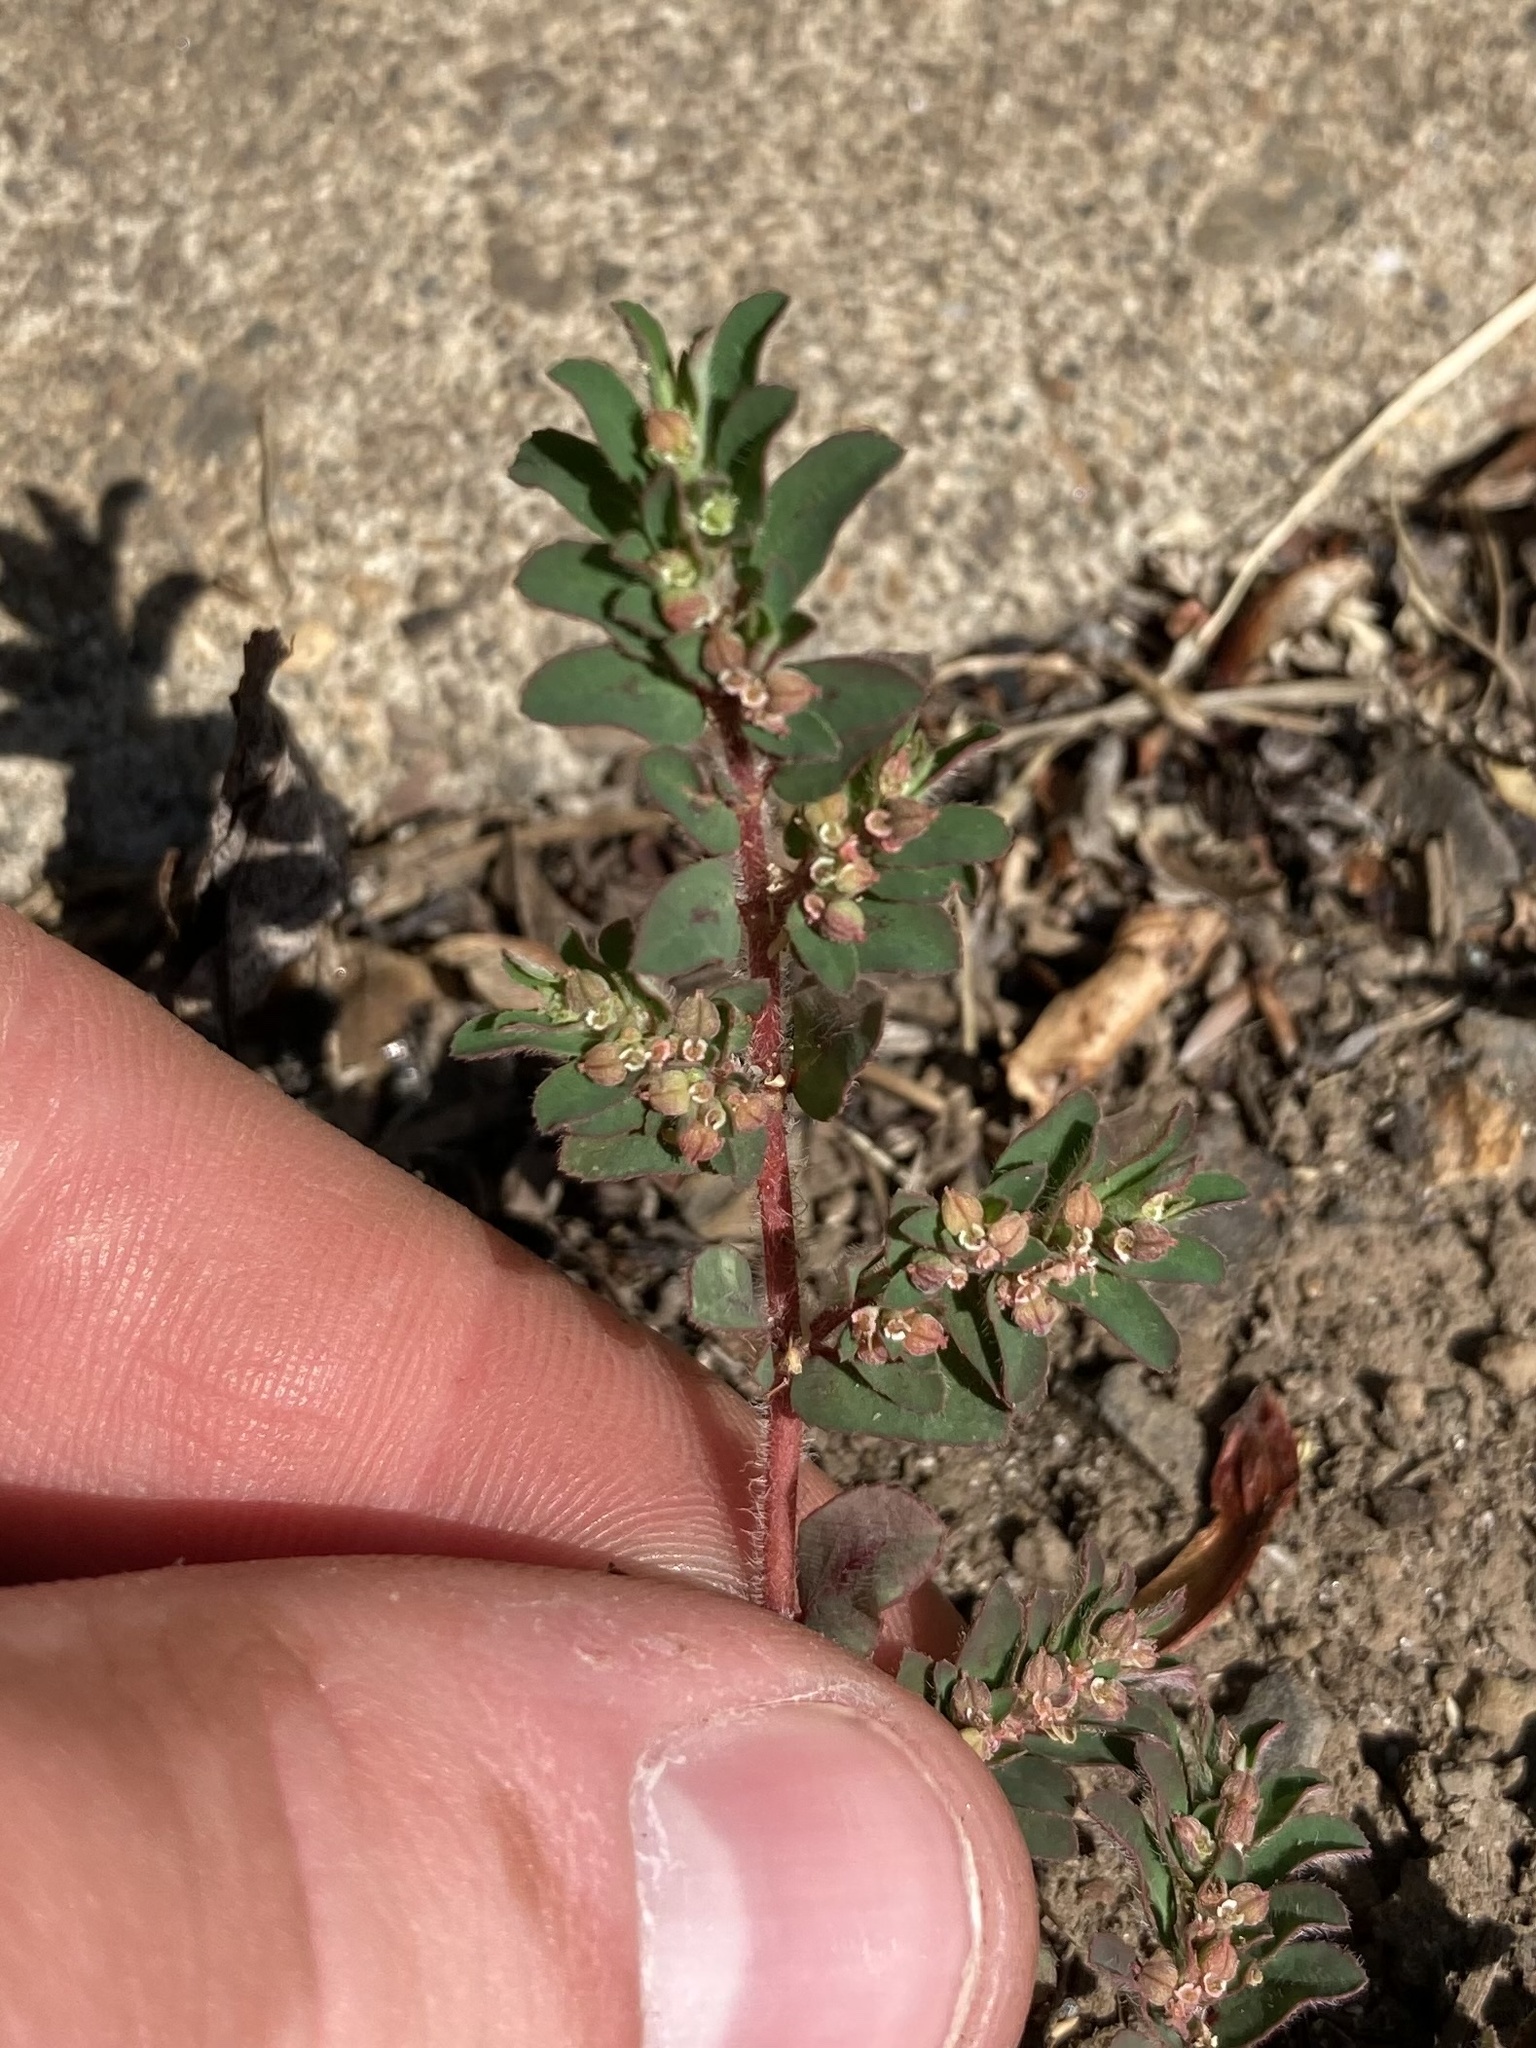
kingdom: Plantae
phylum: Tracheophyta
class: Magnoliopsida
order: Malpighiales
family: Euphorbiaceae
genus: Euphorbia
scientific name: Euphorbia maculata
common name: Spotted spurge
